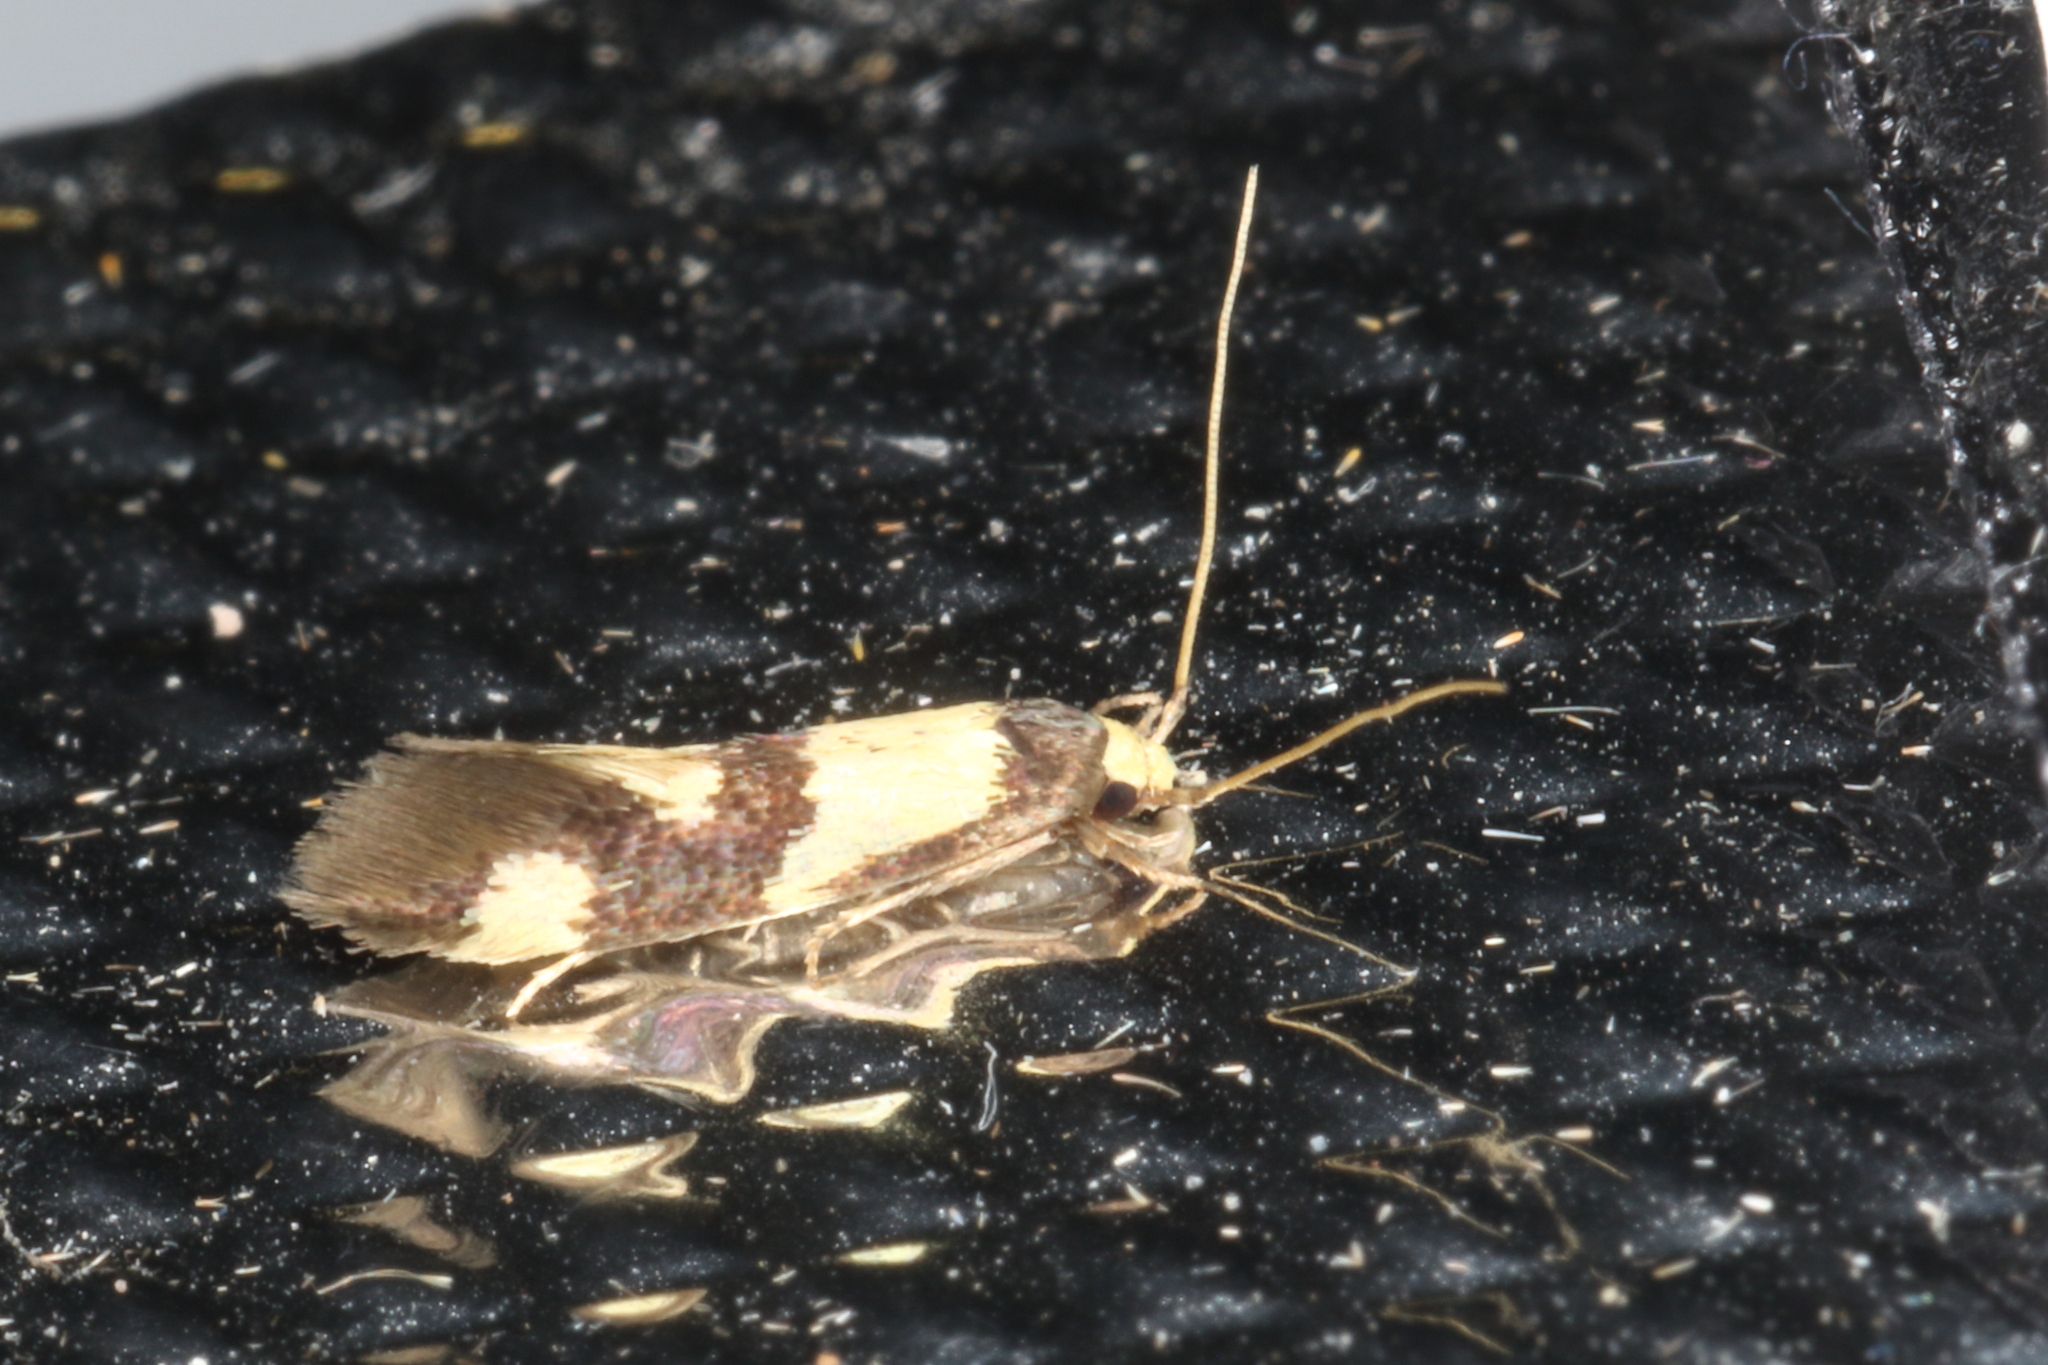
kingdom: Animalia
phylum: Arthropoda
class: Insecta
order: Lepidoptera
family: Tineidae
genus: Opogona
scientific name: Opogona comptella
